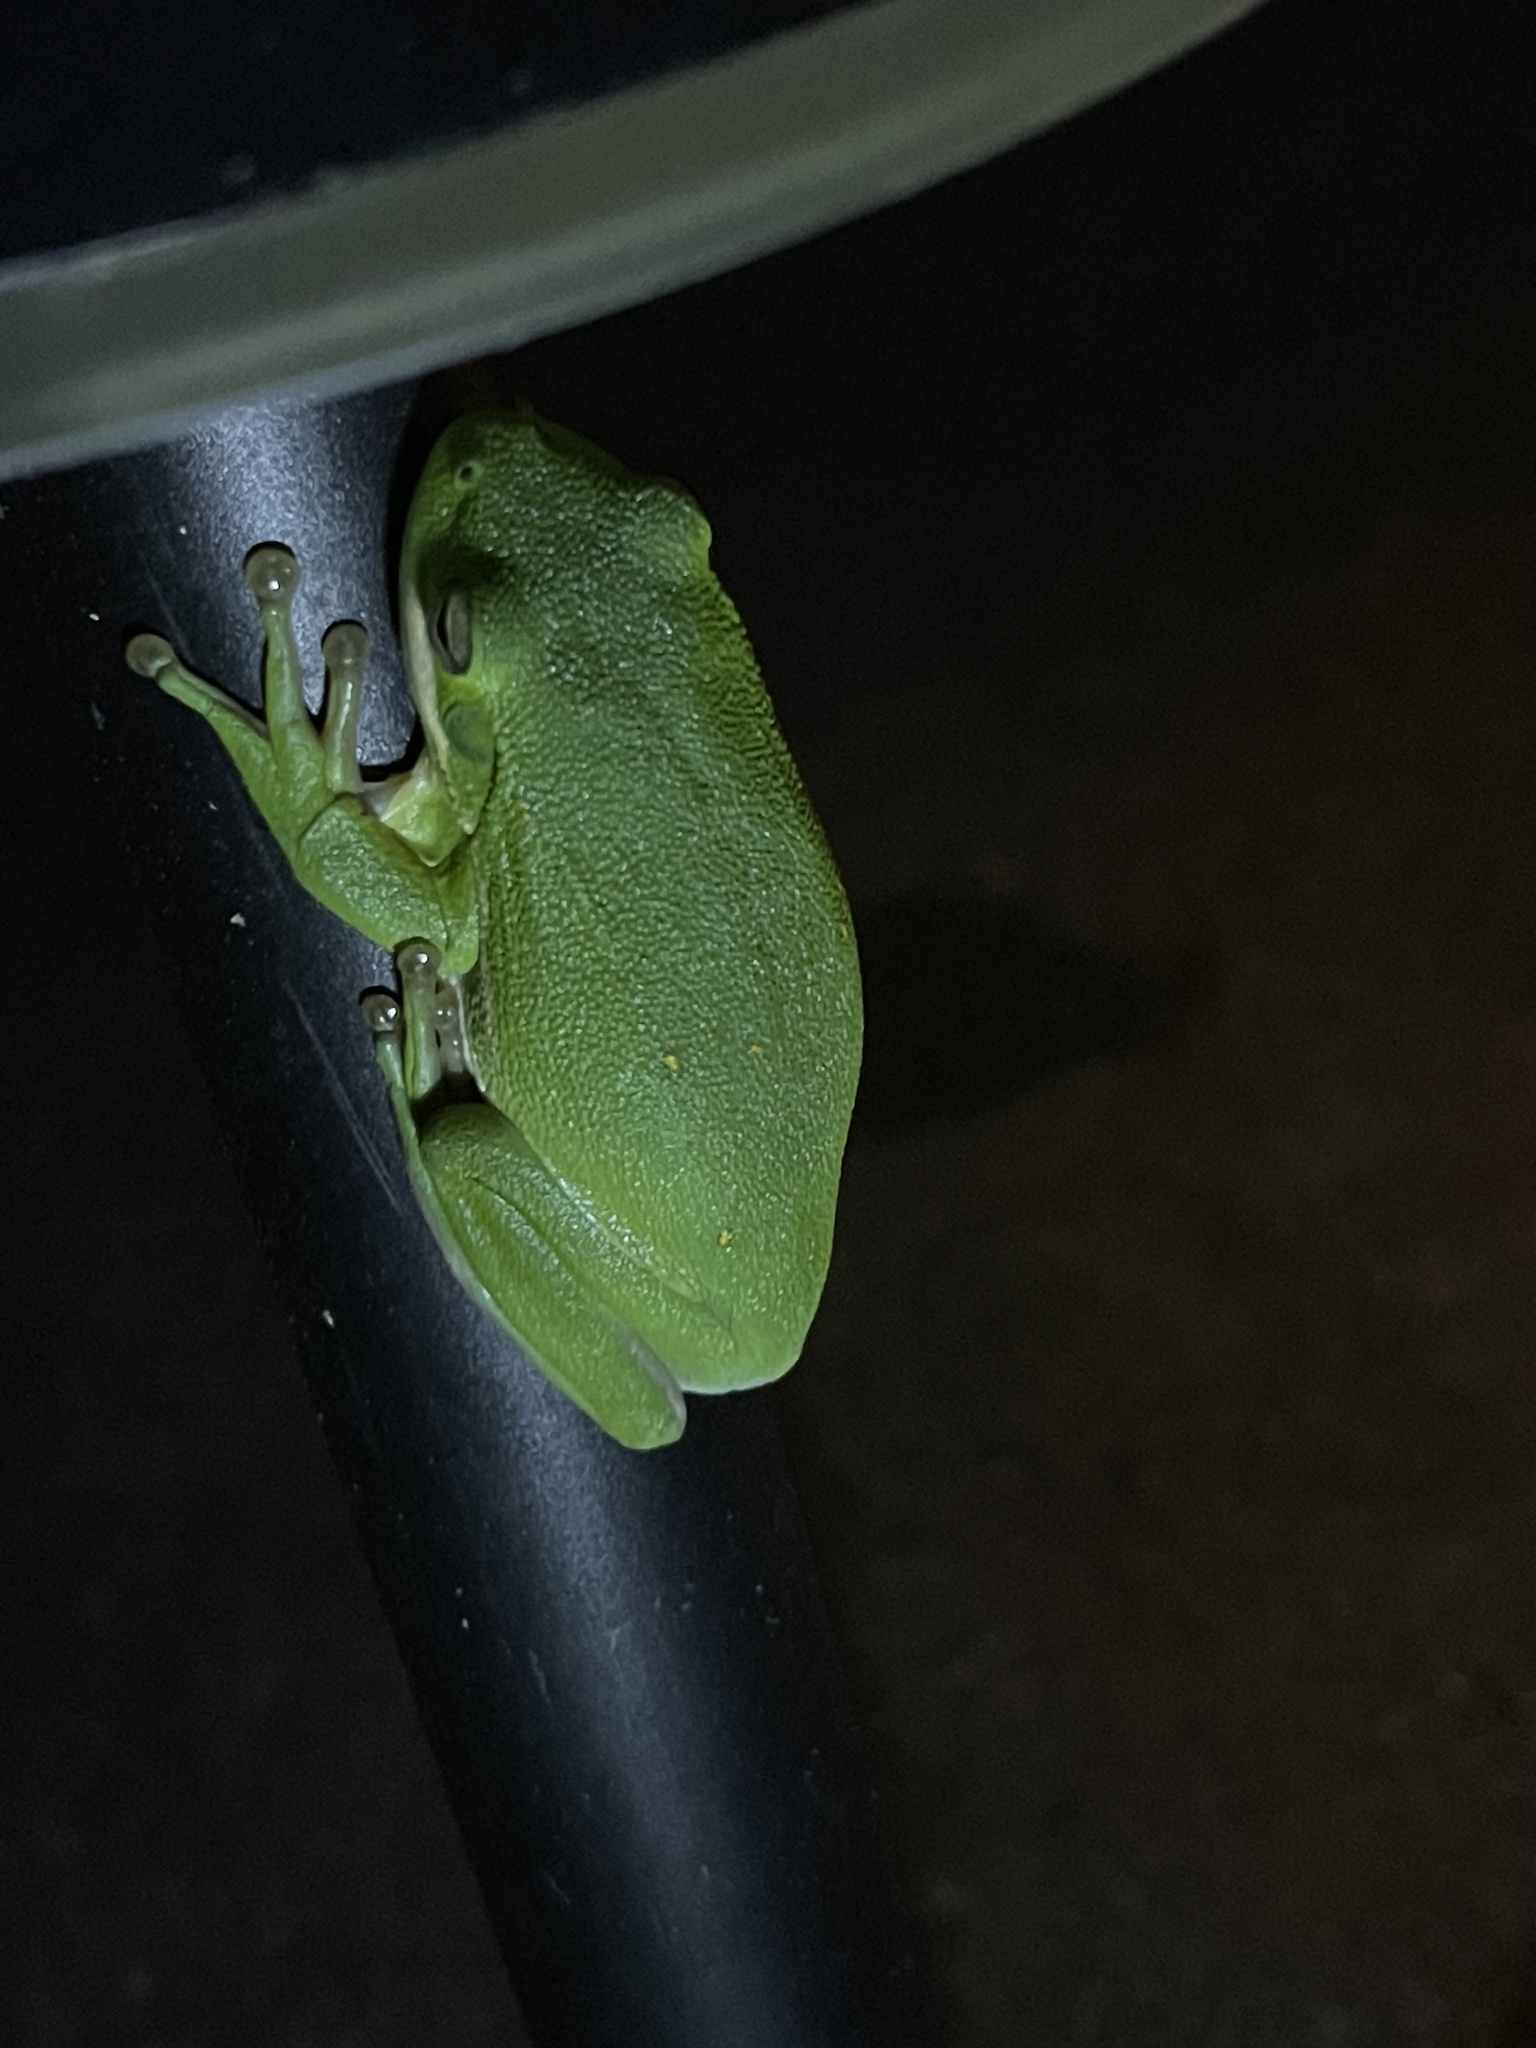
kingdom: Animalia
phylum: Chordata
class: Amphibia
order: Anura
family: Hylidae
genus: Dryophytes
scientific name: Dryophytes cinereus
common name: Green treefrog
